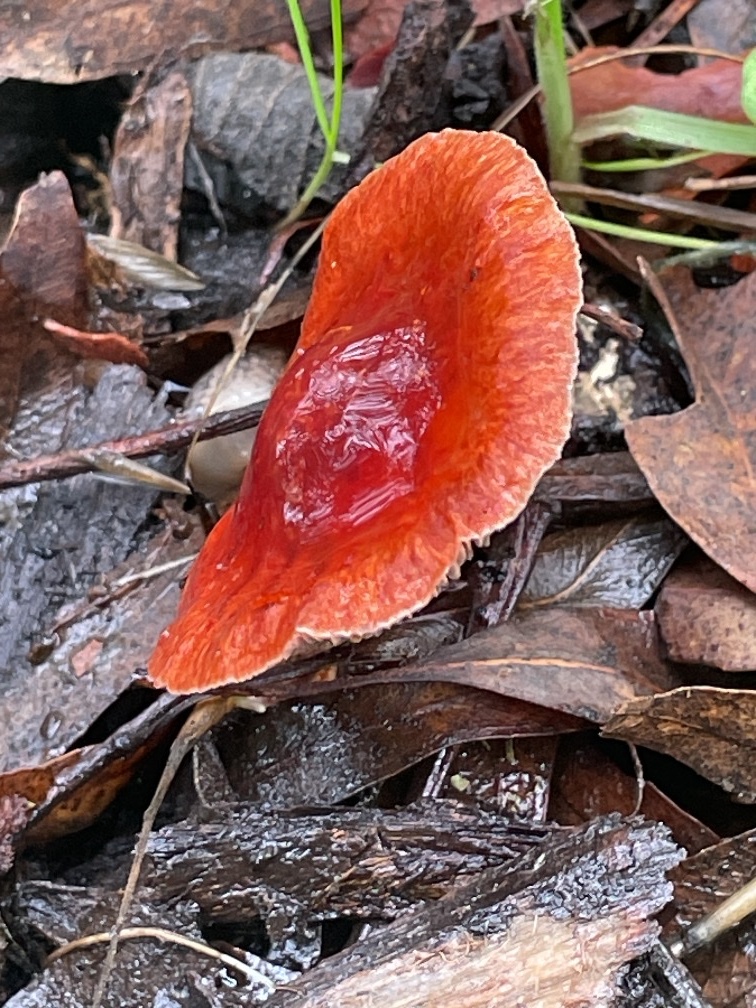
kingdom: Fungi
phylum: Basidiomycota
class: Agaricomycetes
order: Agaricales
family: Strophariaceae
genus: Leratiomyces
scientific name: Leratiomyces ceres
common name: Redlead roundhead
